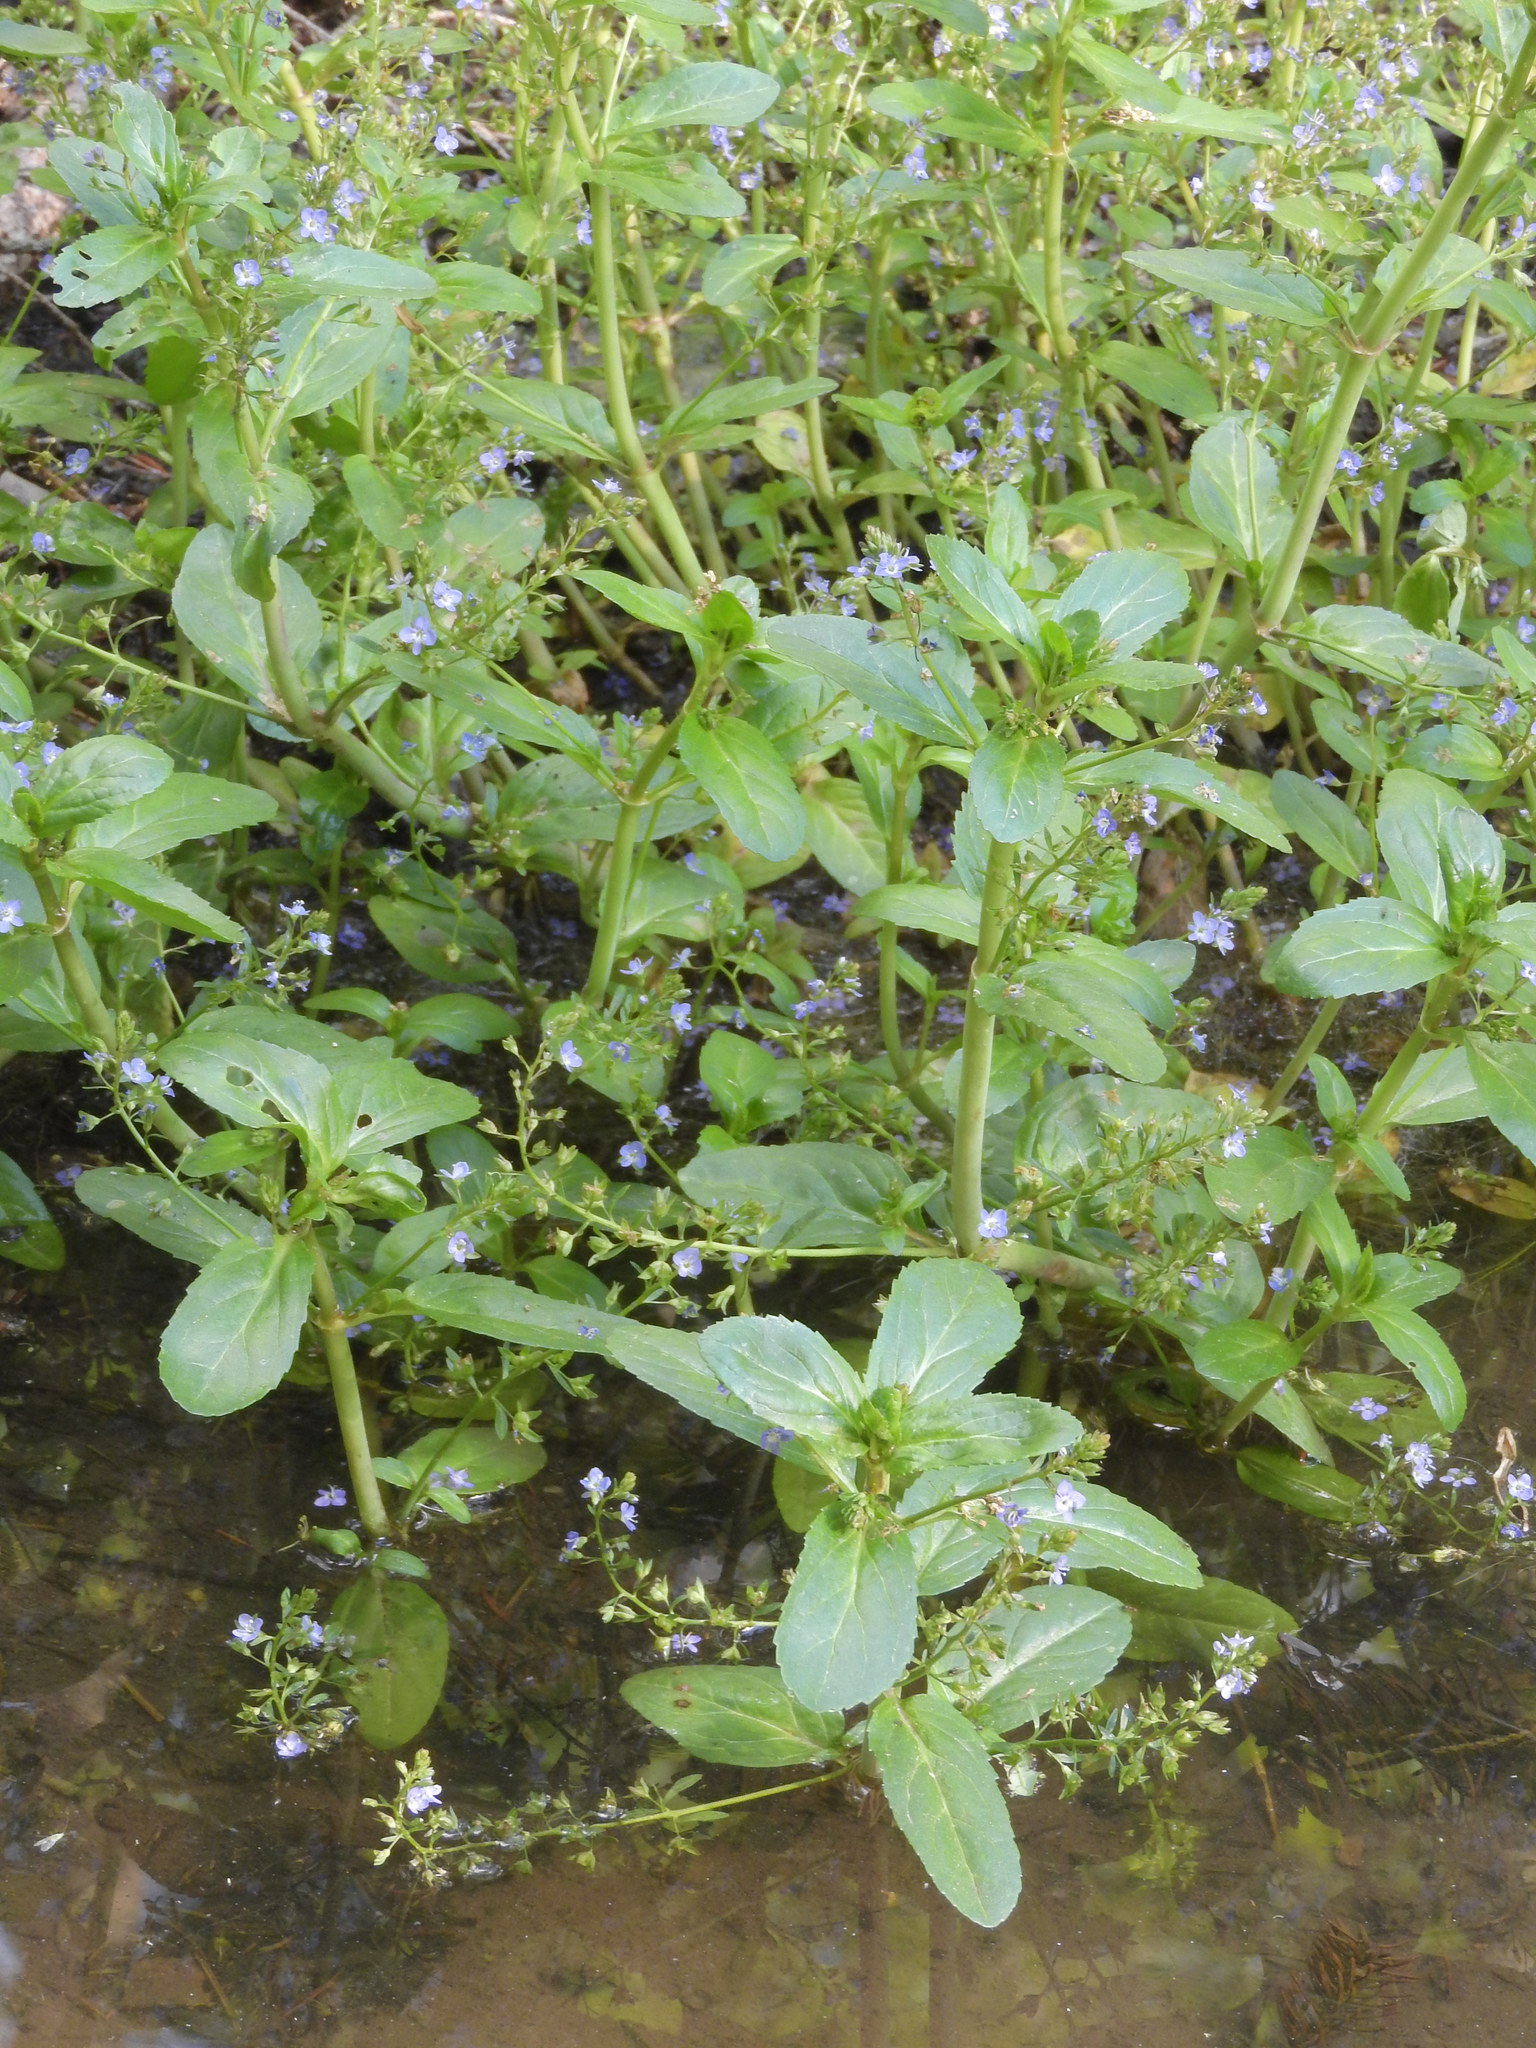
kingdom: Plantae
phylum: Tracheophyta
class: Magnoliopsida
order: Lamiales
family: Plantaginaceae
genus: Veronica
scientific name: Veronica beccabunga
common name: Brooklime
